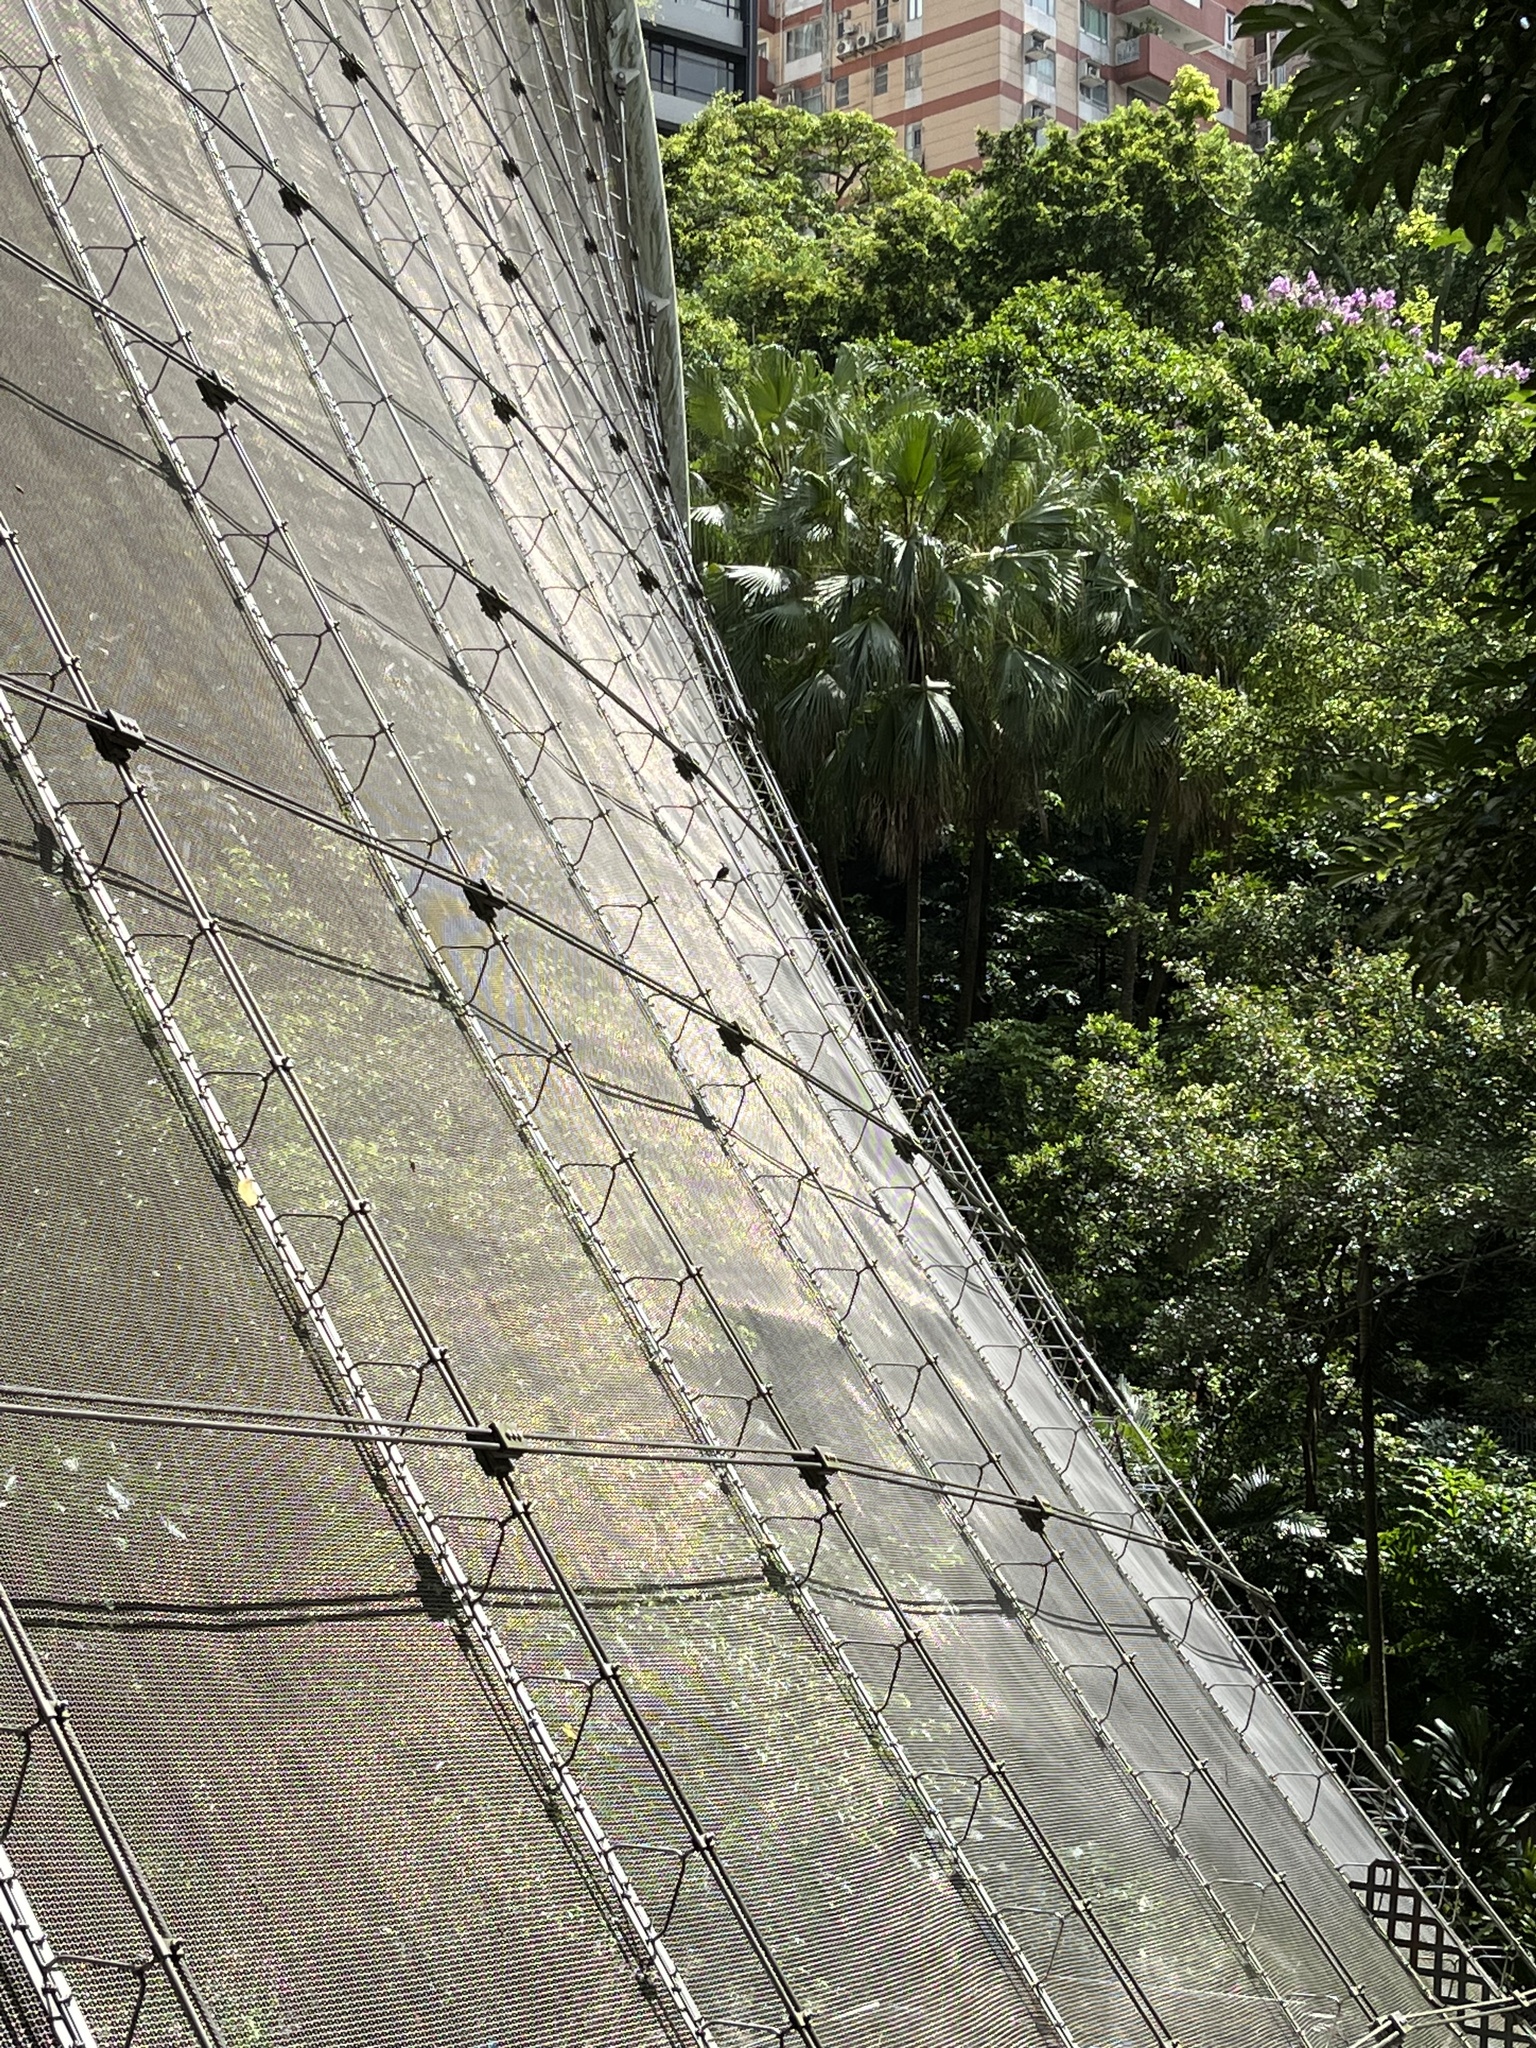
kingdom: Animalia
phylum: Chordata
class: Aves
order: Passeriformes
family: Pycnonotidae
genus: Pycnonotus
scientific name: Pycnonotus jocosus
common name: Red-whiskered bulbul
